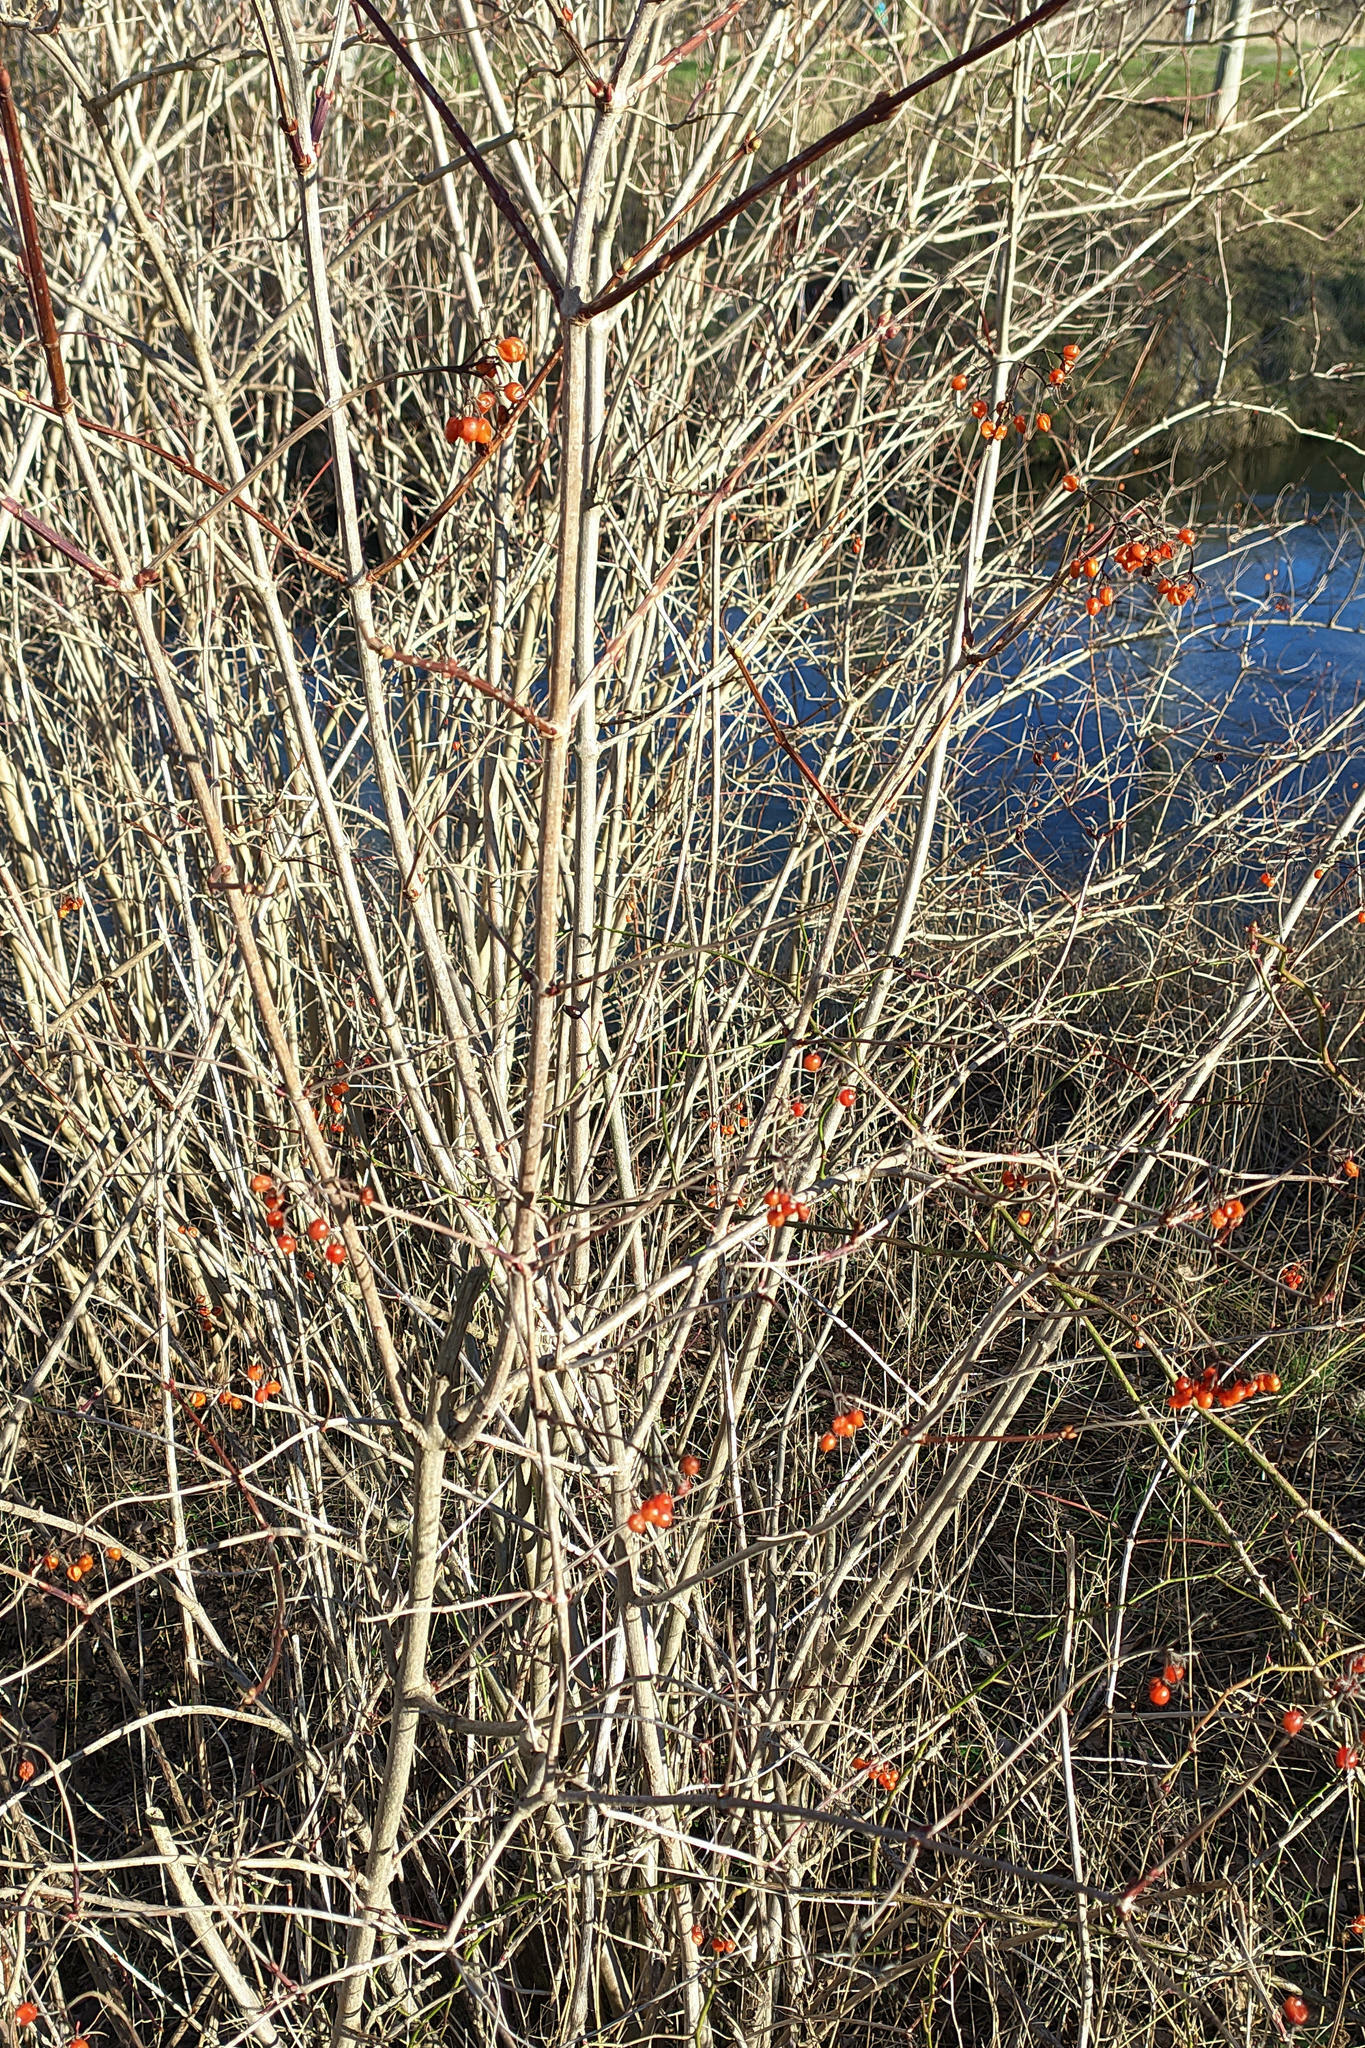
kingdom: Plantae
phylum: Tracheophyta
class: Magnoliopsida
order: Dipsacales
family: Viburnaceae
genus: Viburnum
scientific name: Viburnum opulus
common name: Guelder-rose
